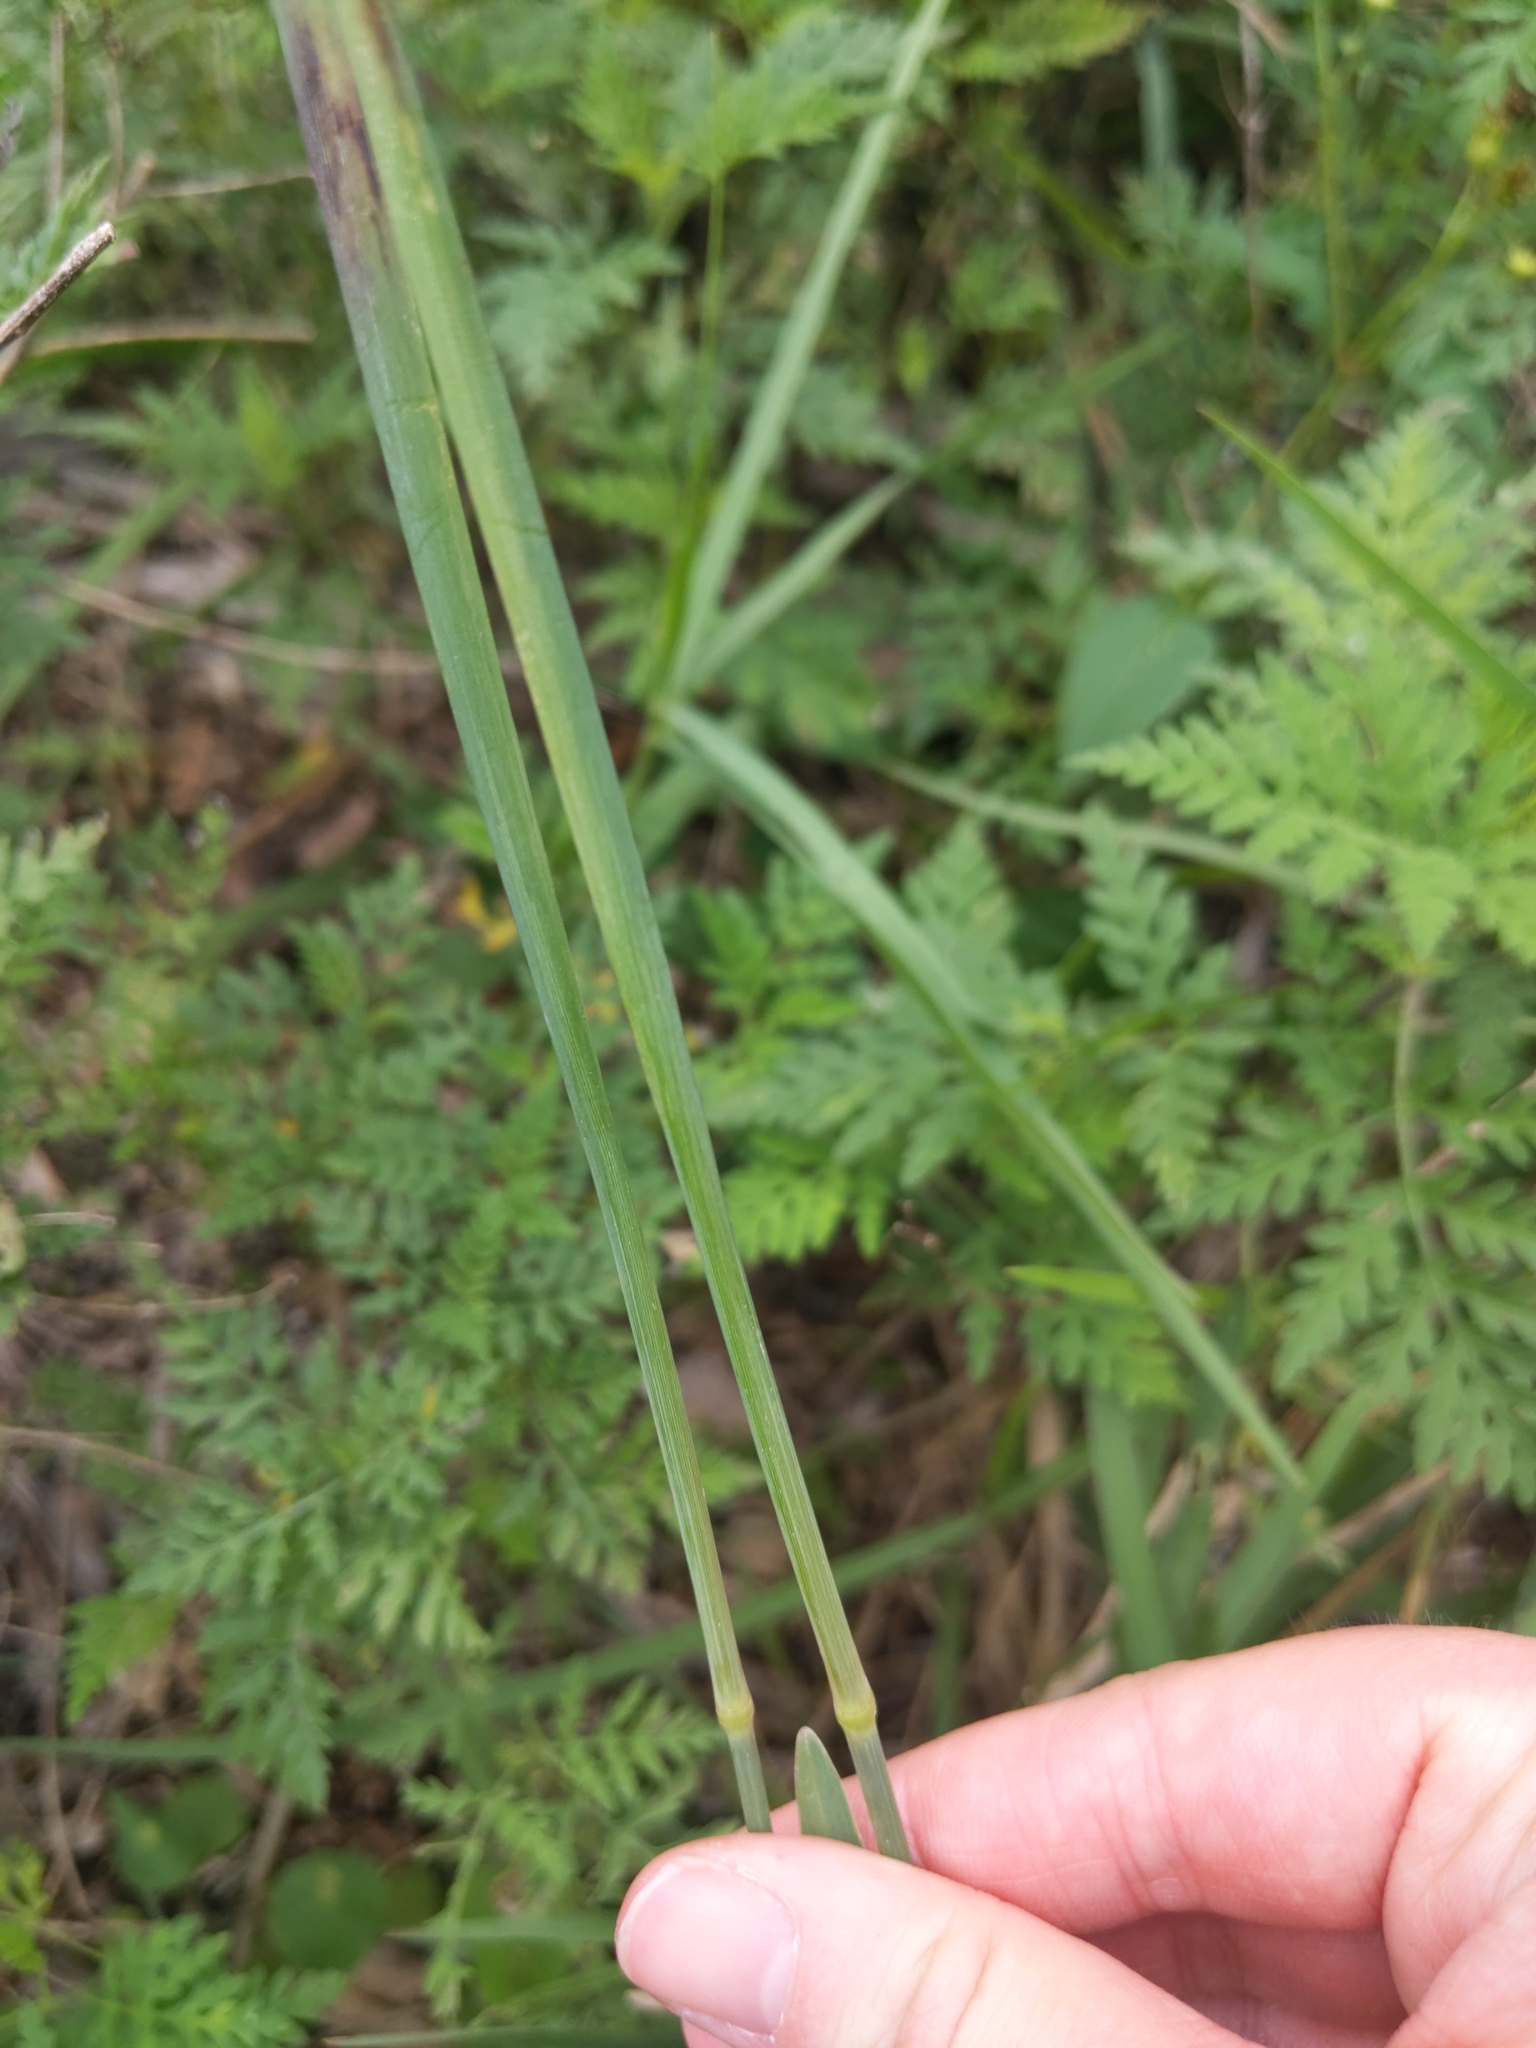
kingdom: Plantae
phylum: Tracheophyta
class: Liliopsida
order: Poales
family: Poaceae
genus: Eustachys
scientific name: Eustachys petraea
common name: Pinewoods fingergrass
